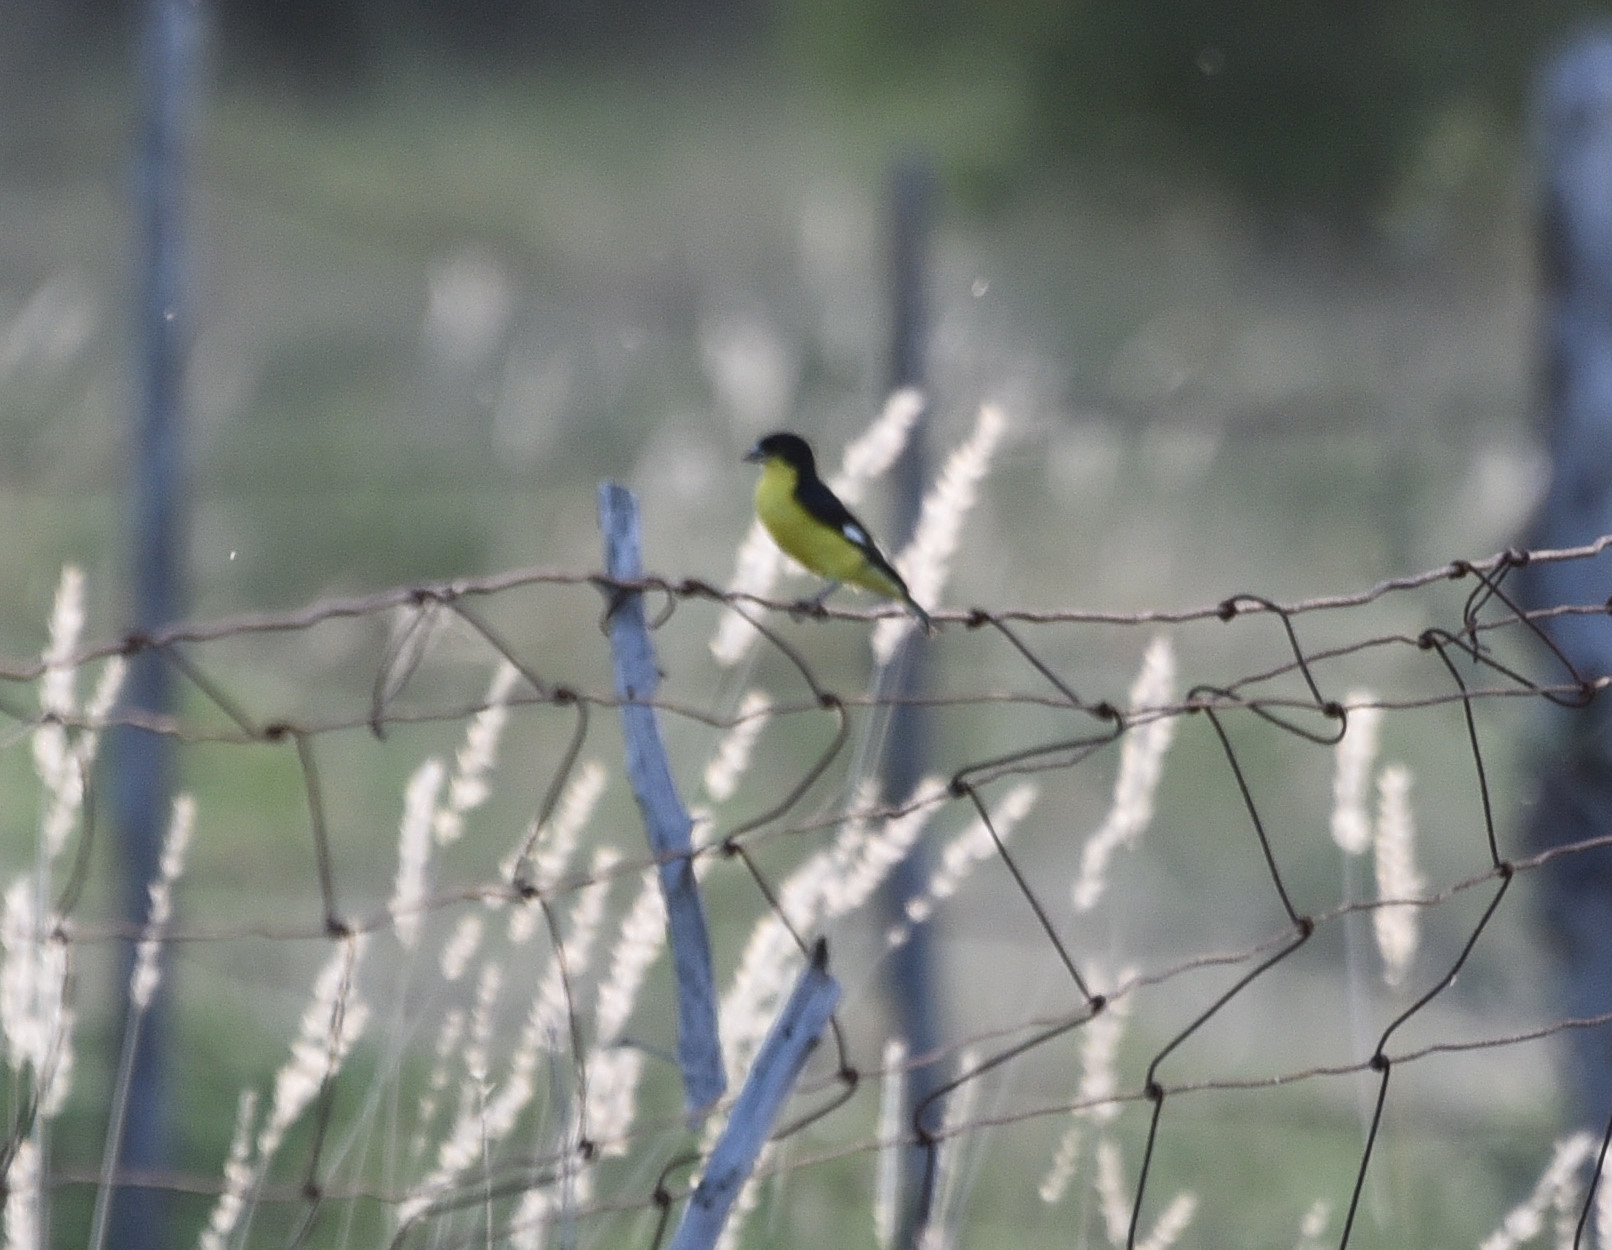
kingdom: Animalia
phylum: Chordata
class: Aves
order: Passeriformes
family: Fringillidae
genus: Spinus
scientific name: Spinus psaltria
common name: Lesser goldfinch
